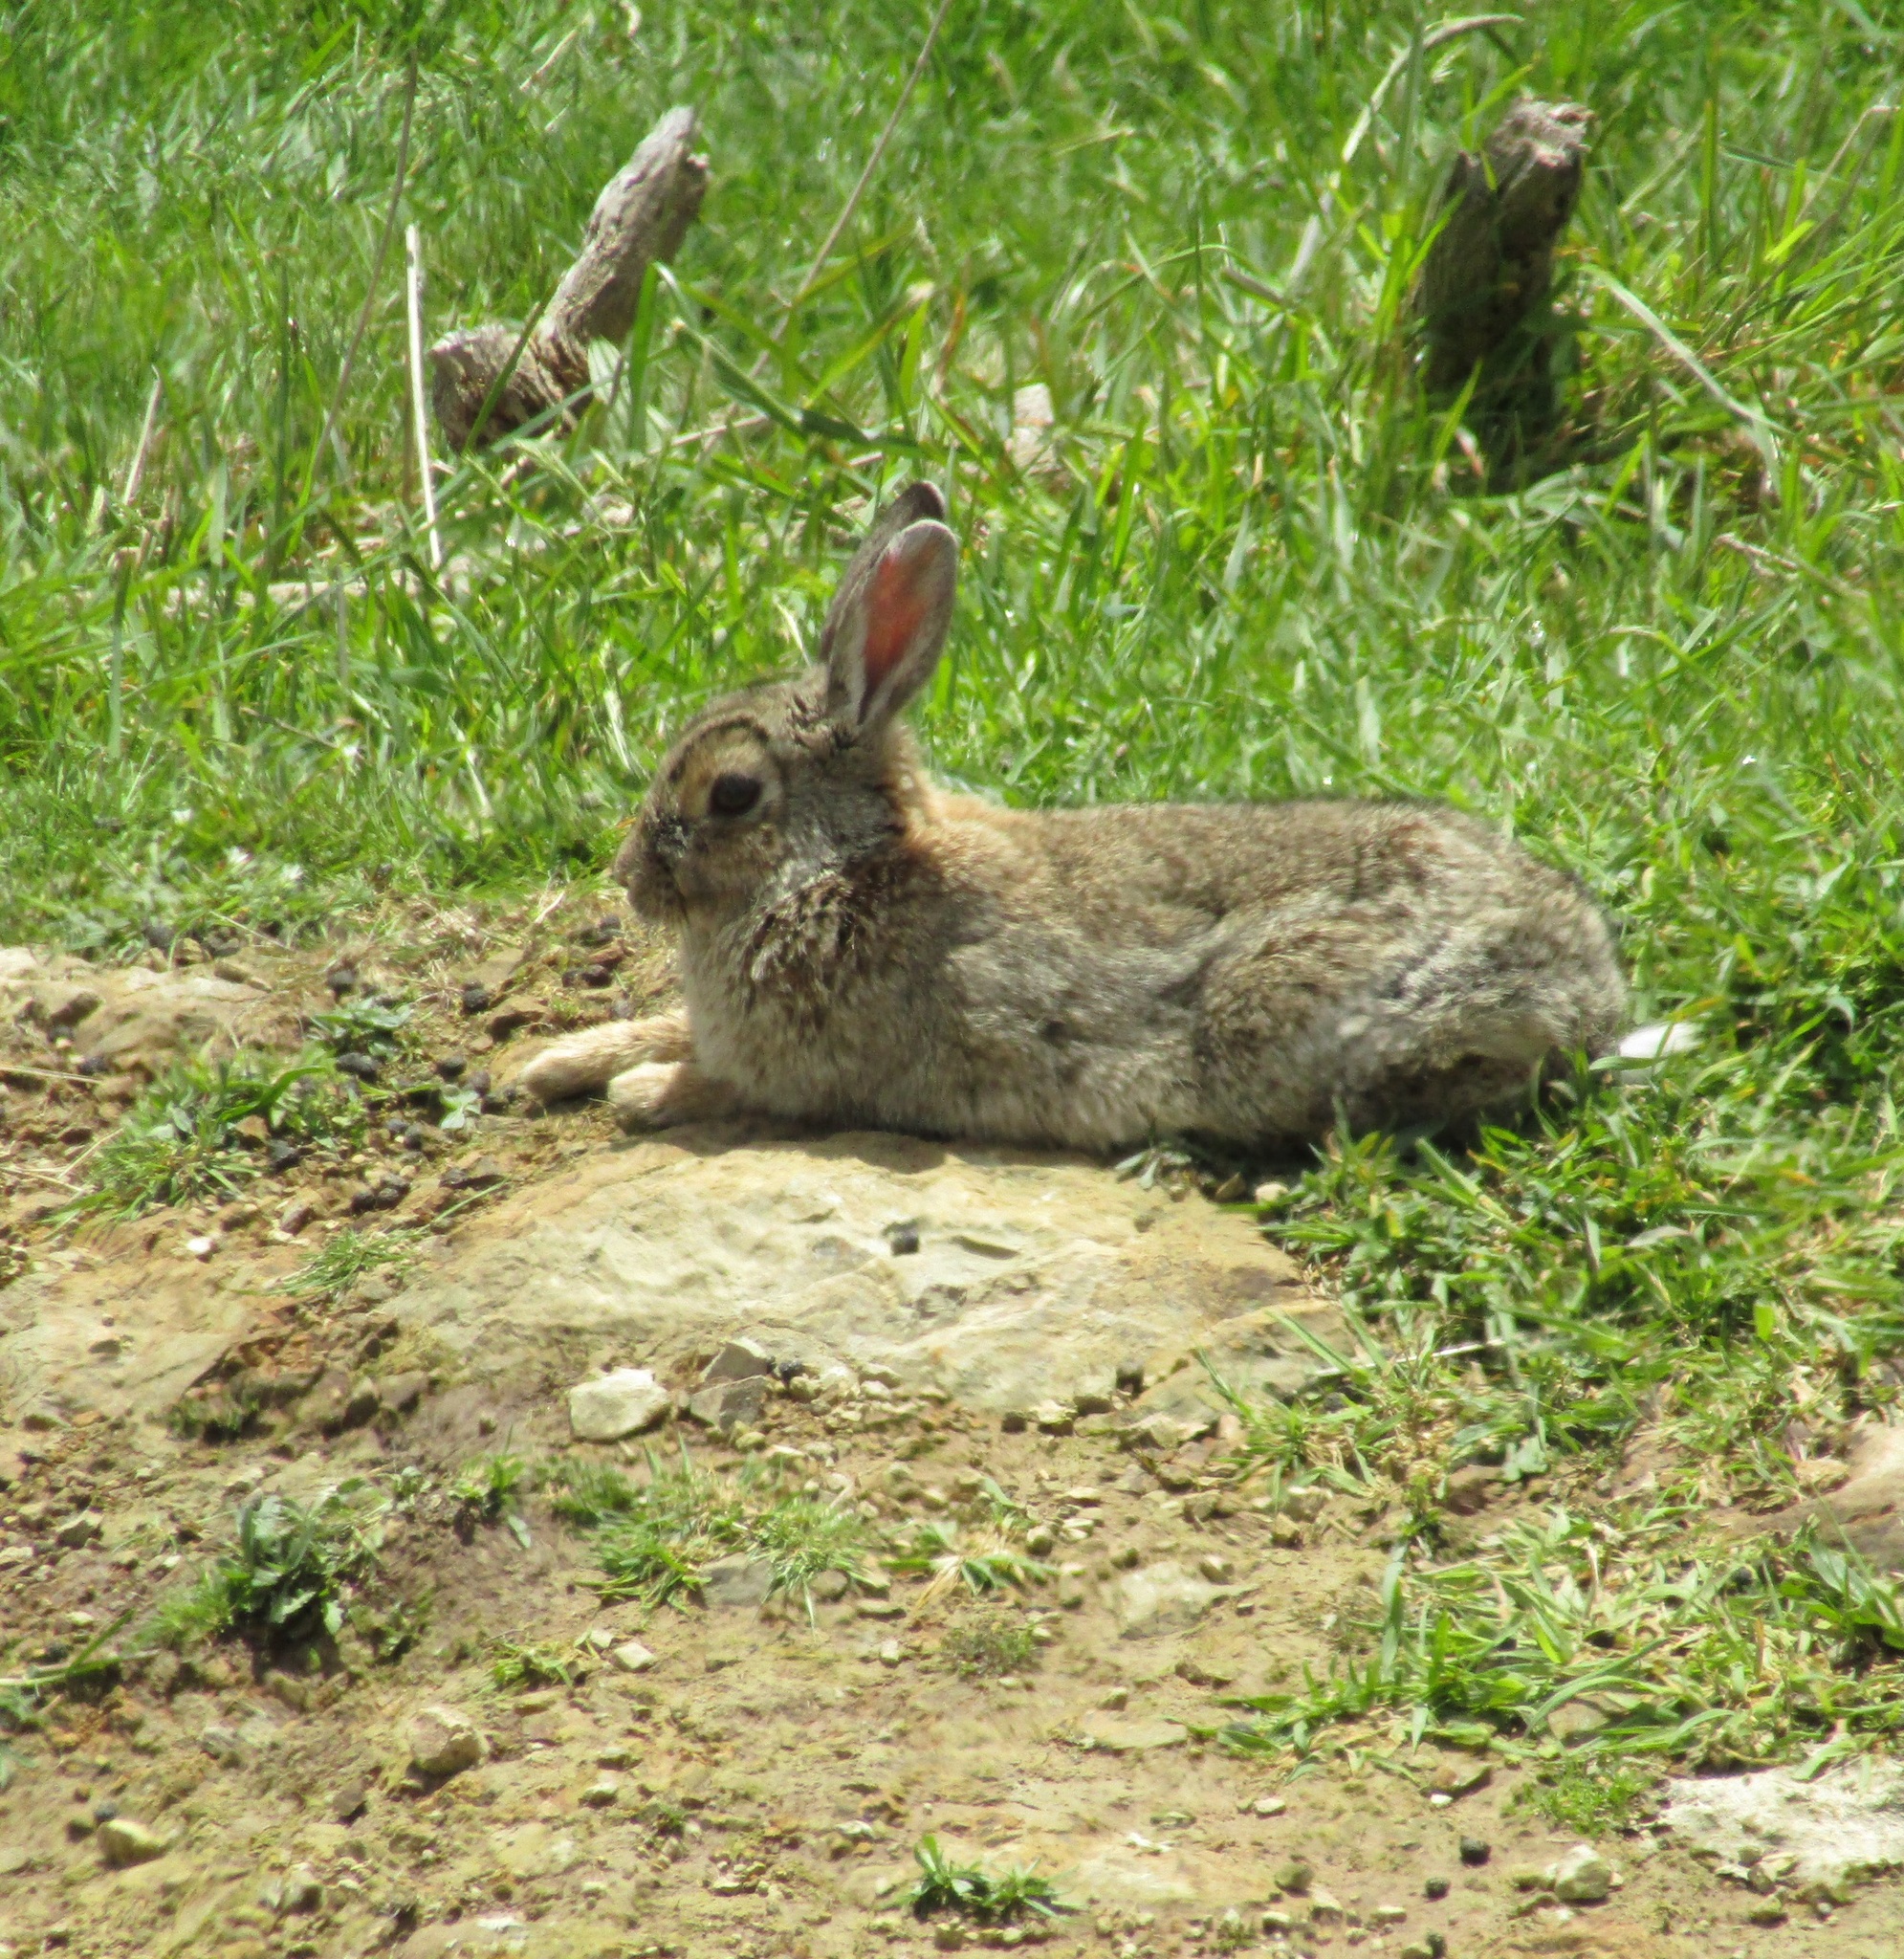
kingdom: Animalia
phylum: Chordata
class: Mammalia
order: Lagomorpha
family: Leporidae
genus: Oryctolagus
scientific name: Oryctolagus cuniculus
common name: European rabbit
